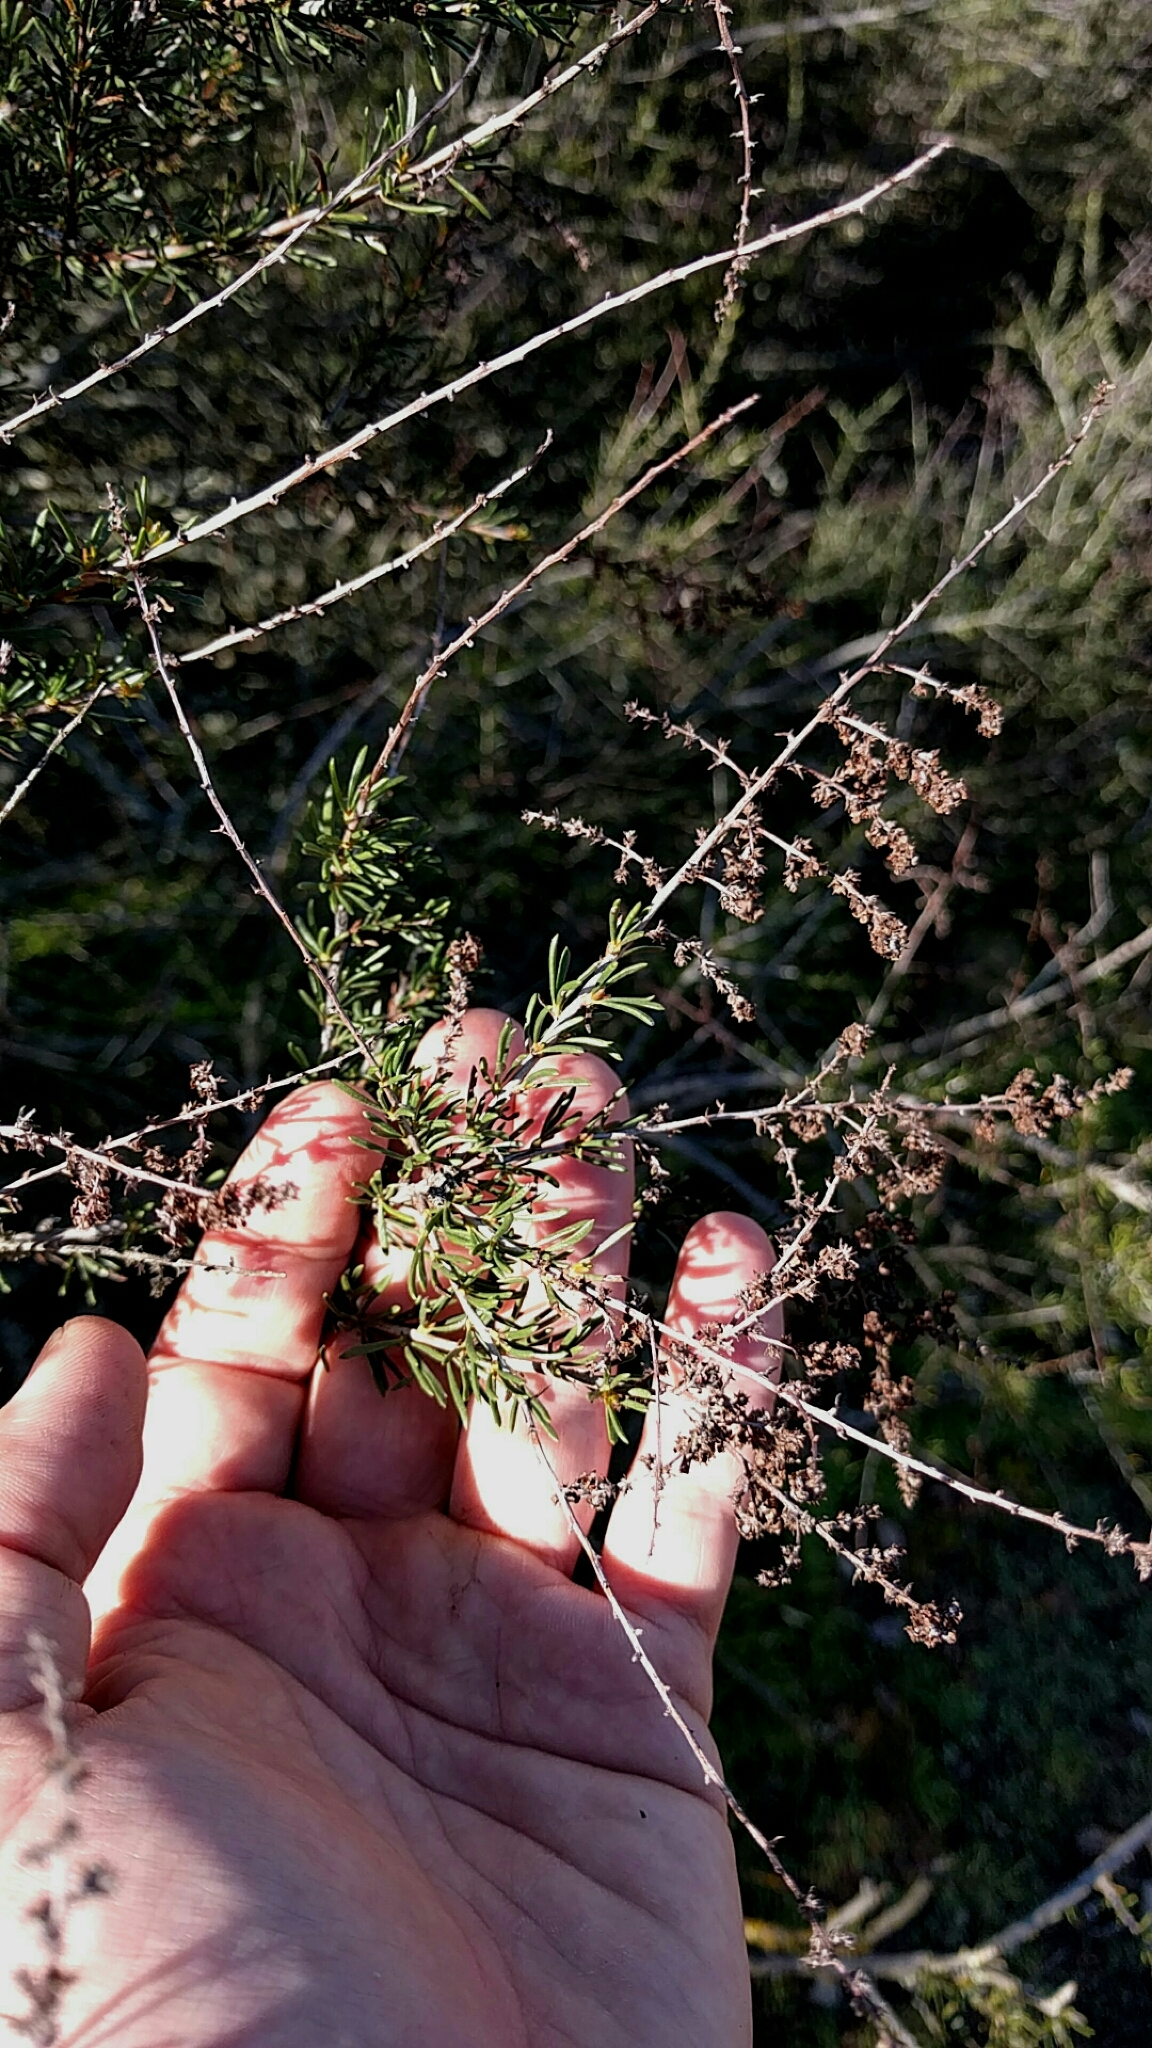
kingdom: Plantae
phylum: Tracheophyta
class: Magnoliopsida
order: Rosales
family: Rosaceae
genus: Adenostoma
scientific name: Adenostoma fasciculatum
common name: Chamise
